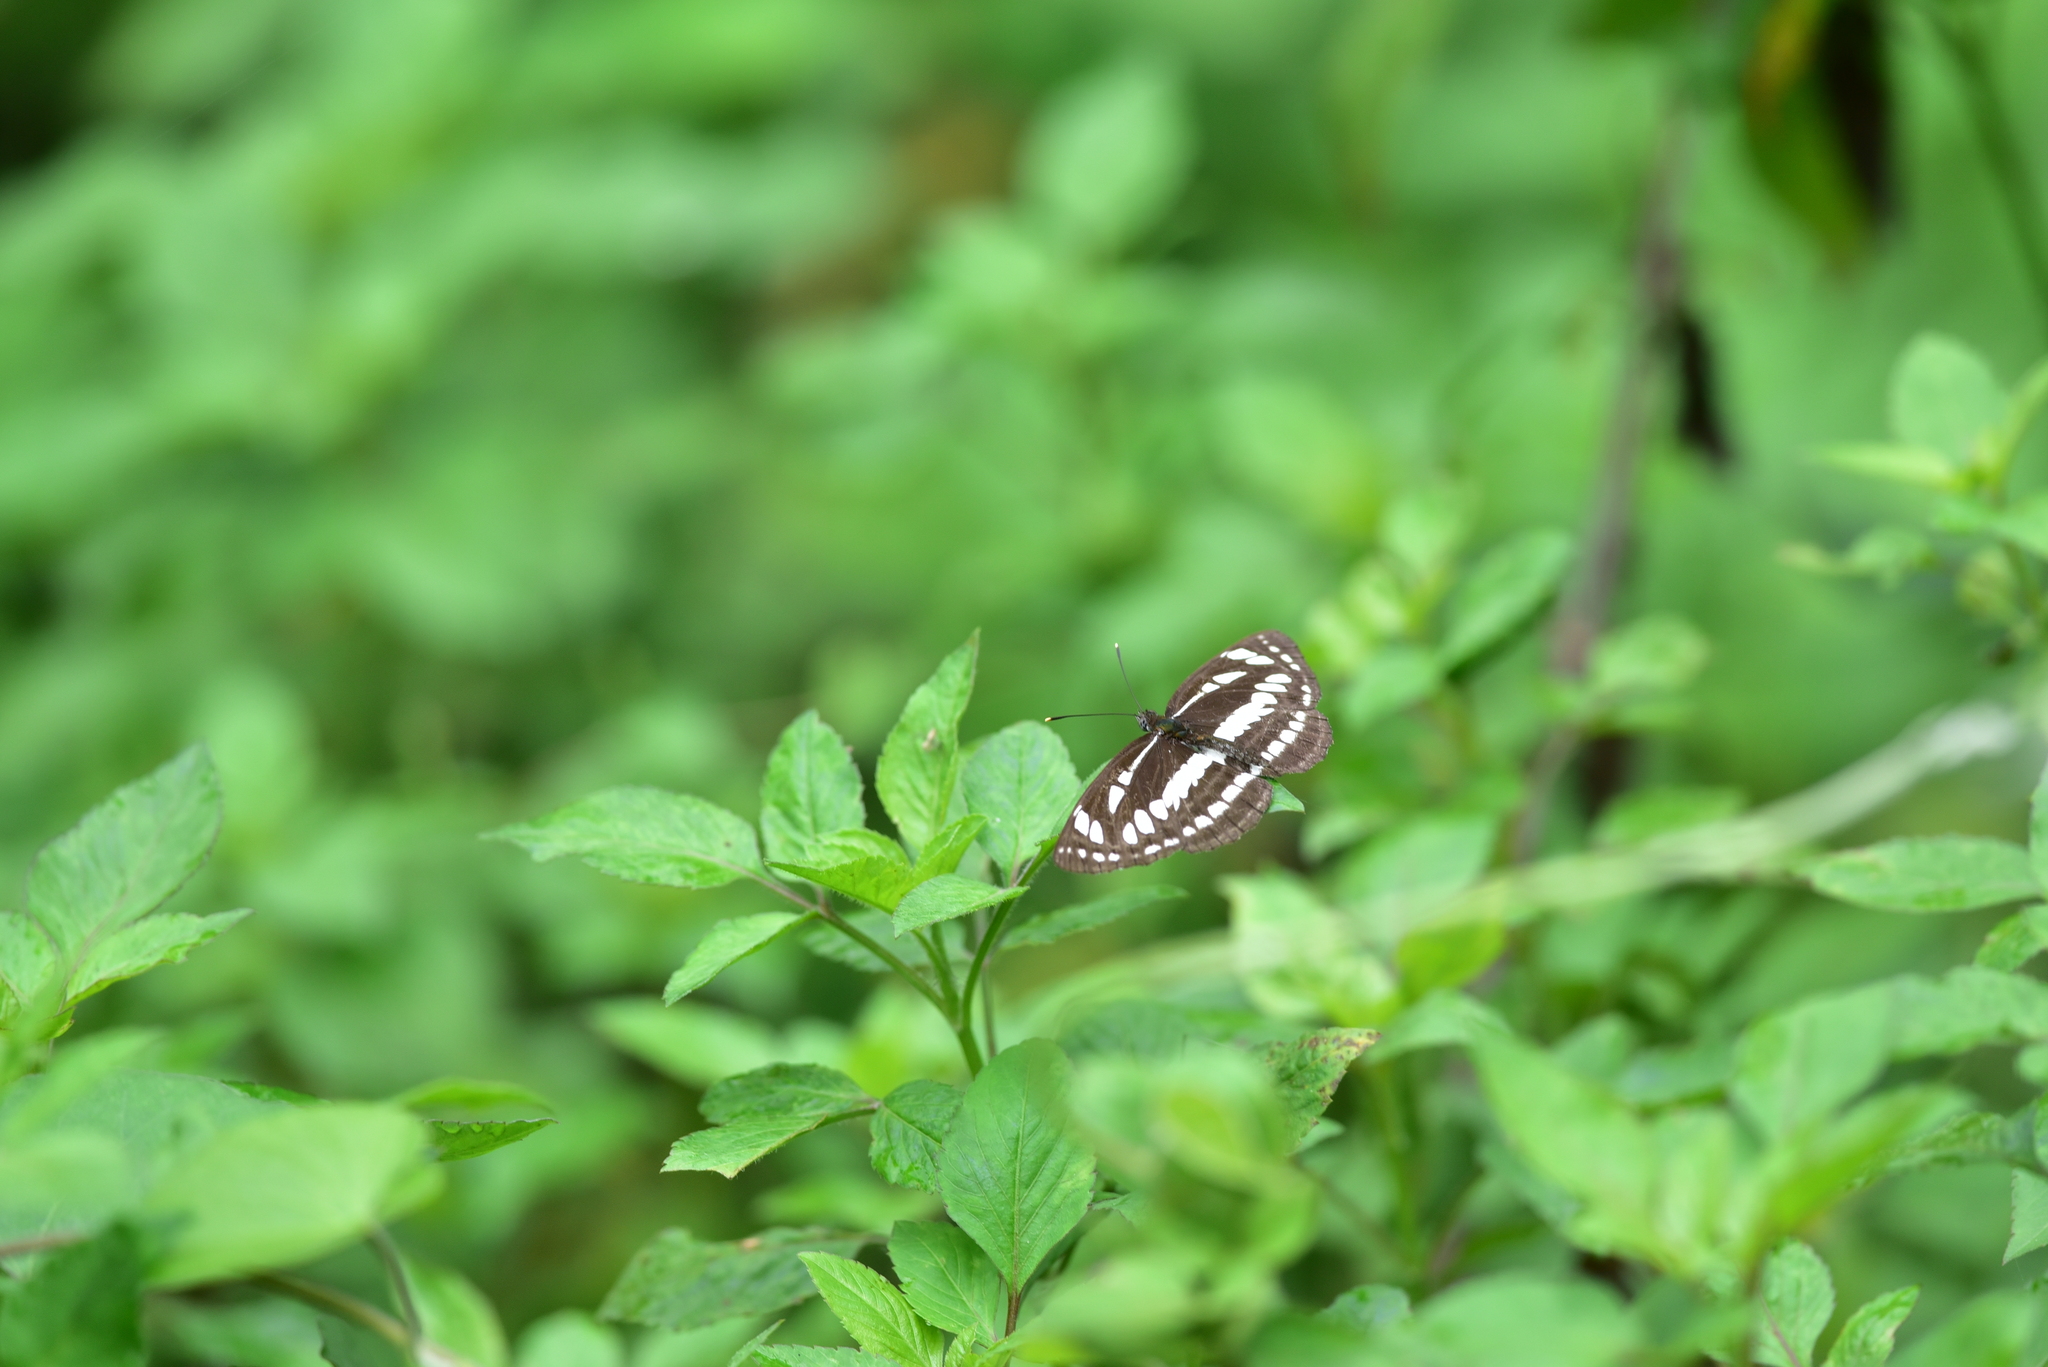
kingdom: Animalia
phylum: Arthropoda
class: Insecta
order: Lepidoptera
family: Nymphalidae
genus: Neptis
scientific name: Neptis hylas
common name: Common sailer
